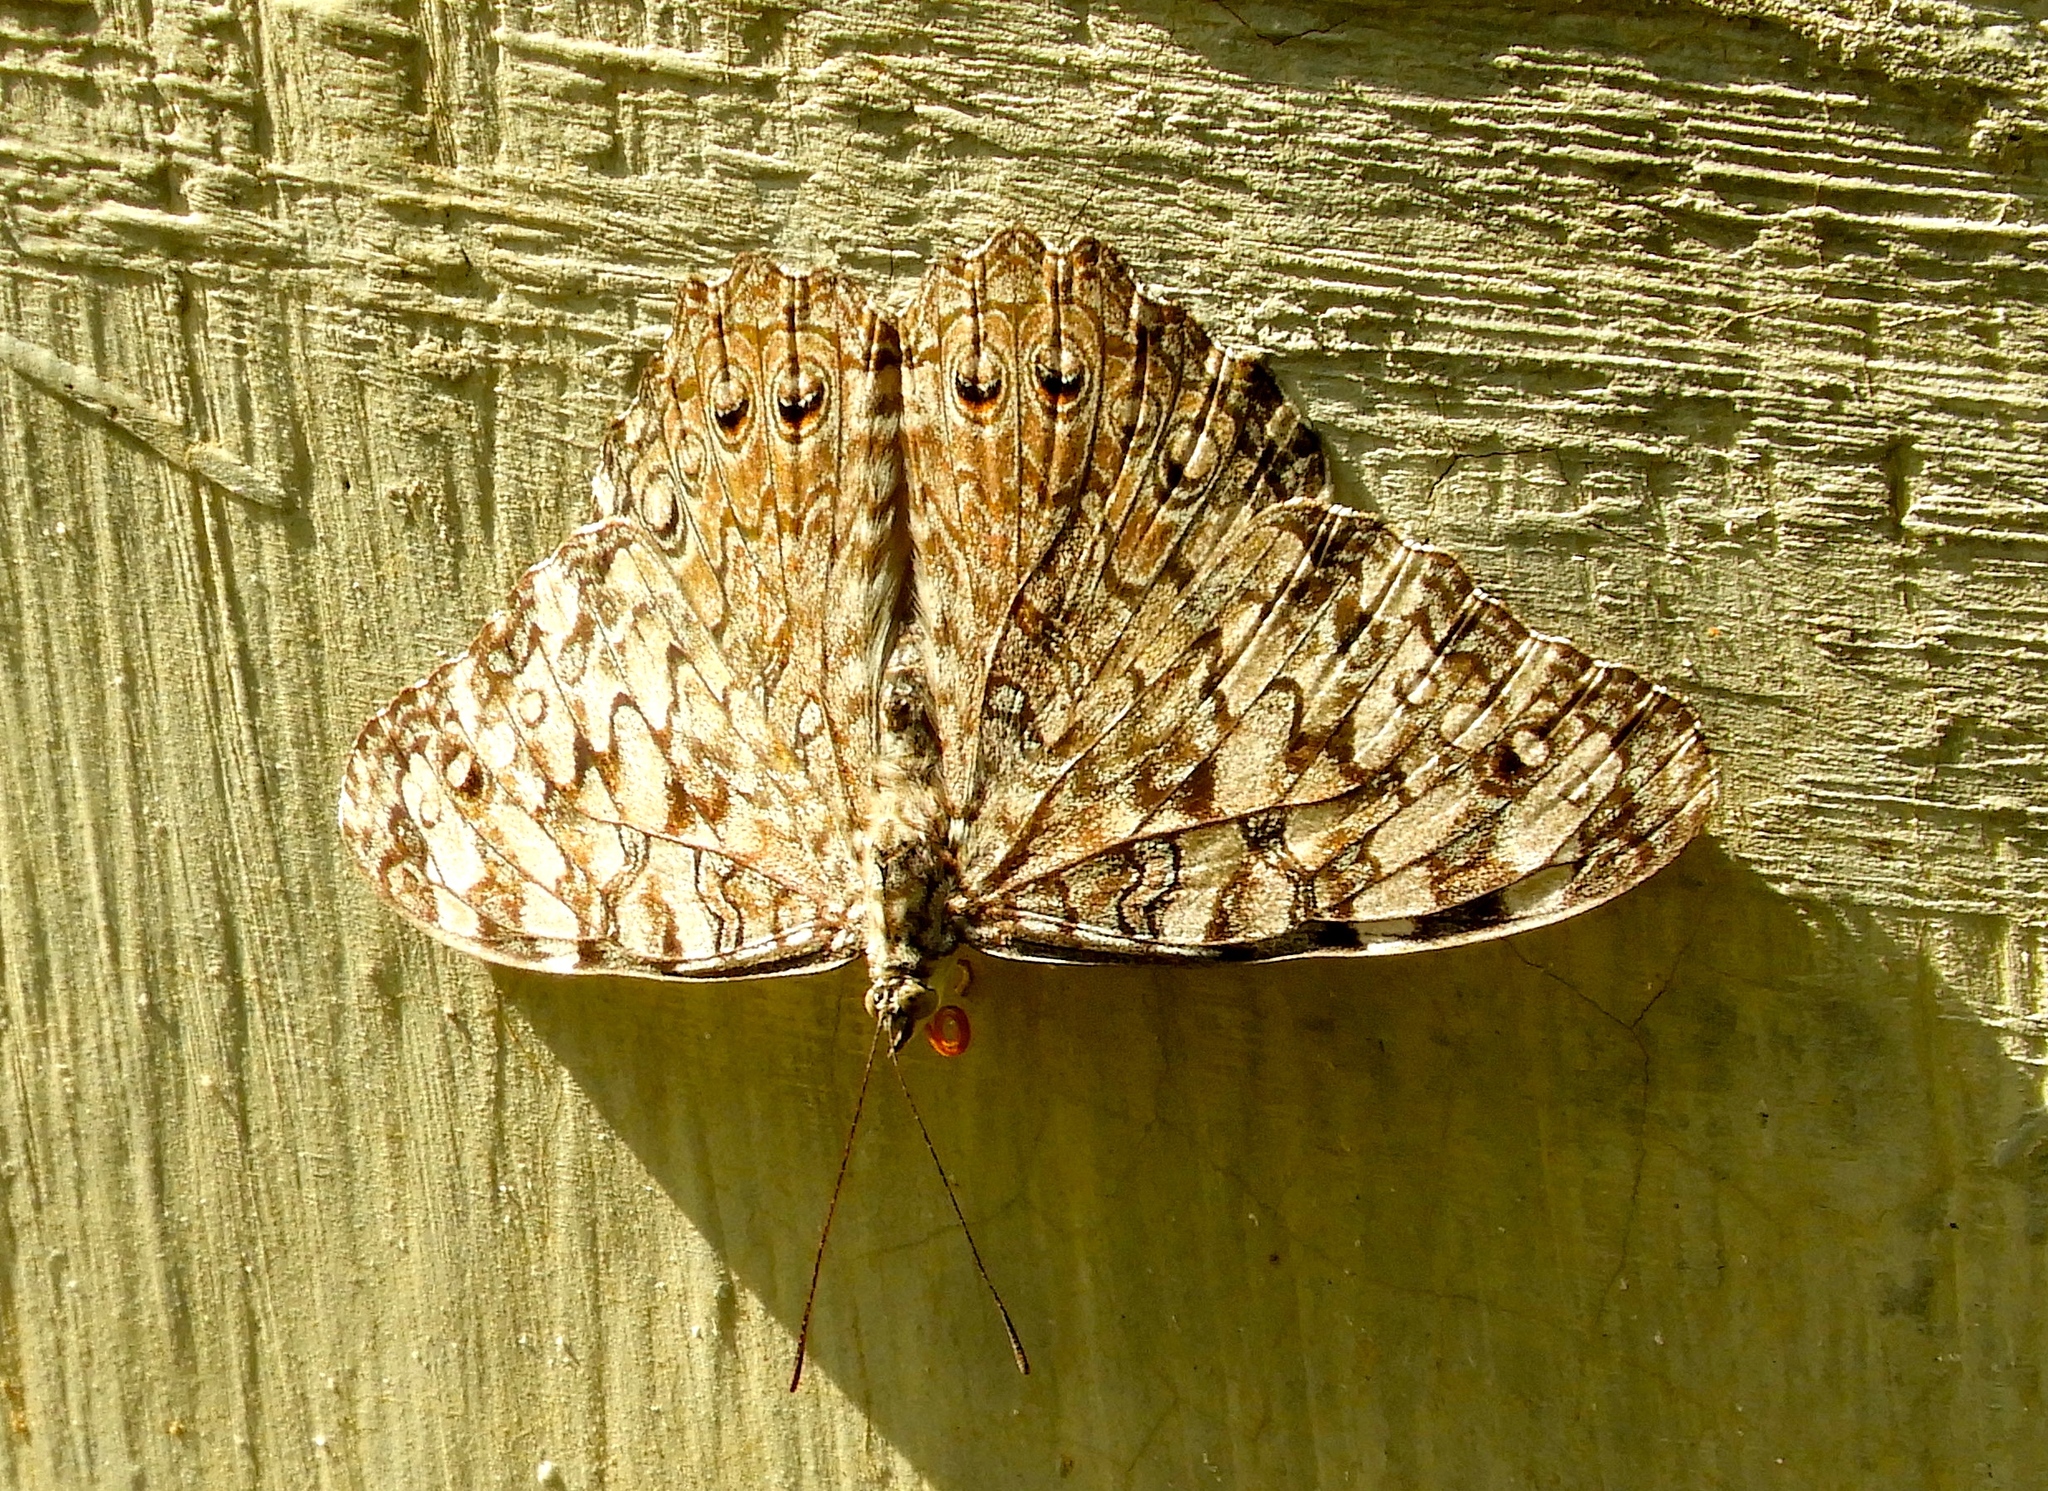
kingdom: Animalia
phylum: Arthropoda
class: Insecta
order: Lepidoptera
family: Nymphalidae
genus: Hamadryas
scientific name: Hamadryas
